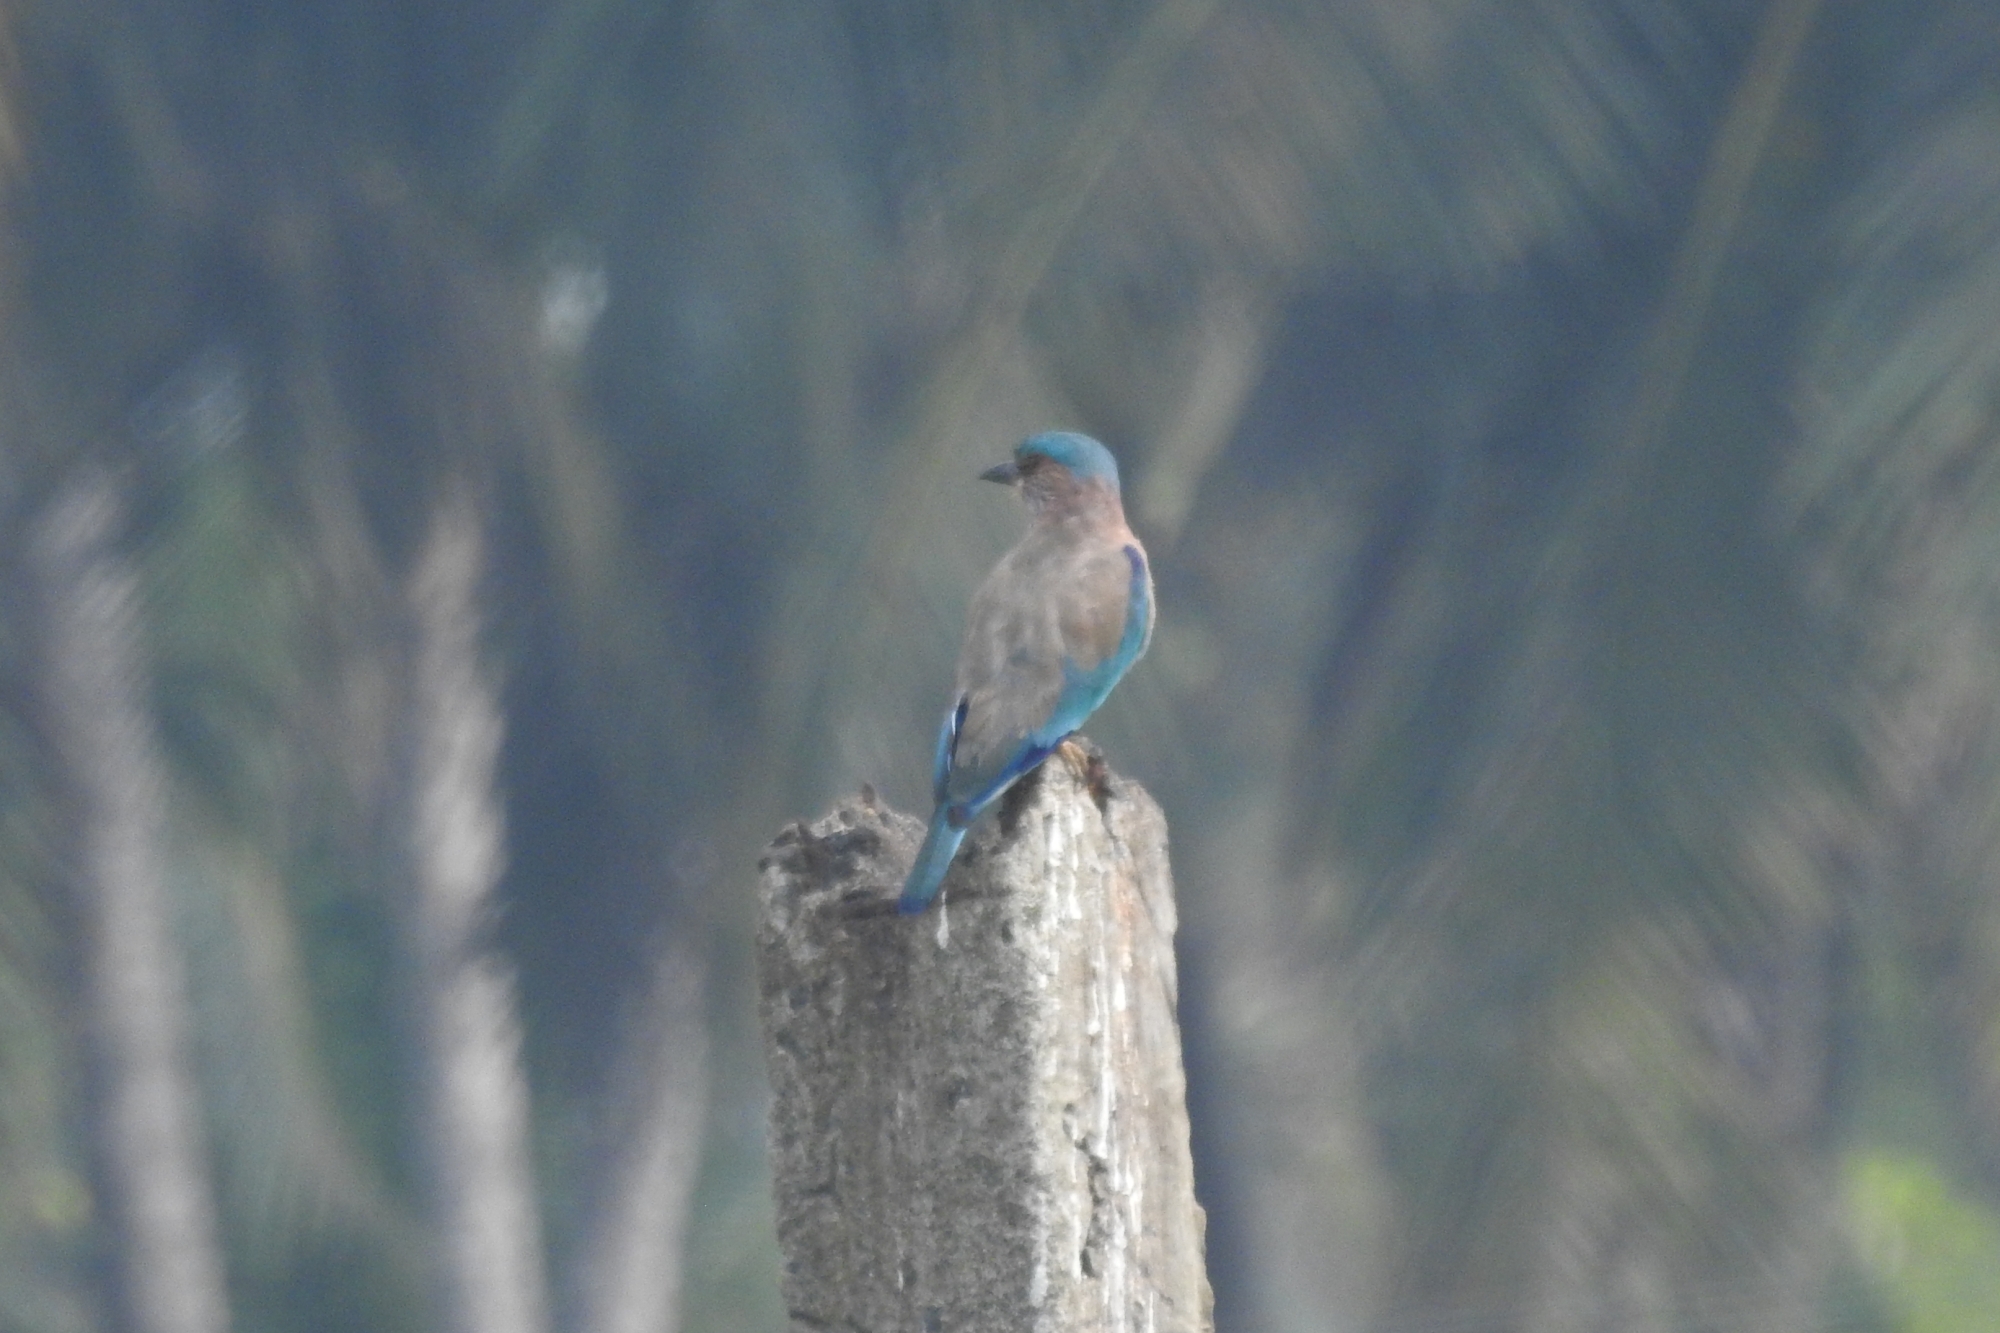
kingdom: Animalia
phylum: Chordata
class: Aves
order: Coraciiformes
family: Coraciidae
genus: Coracias
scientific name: Coracias benghalensis
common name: Indian roller
